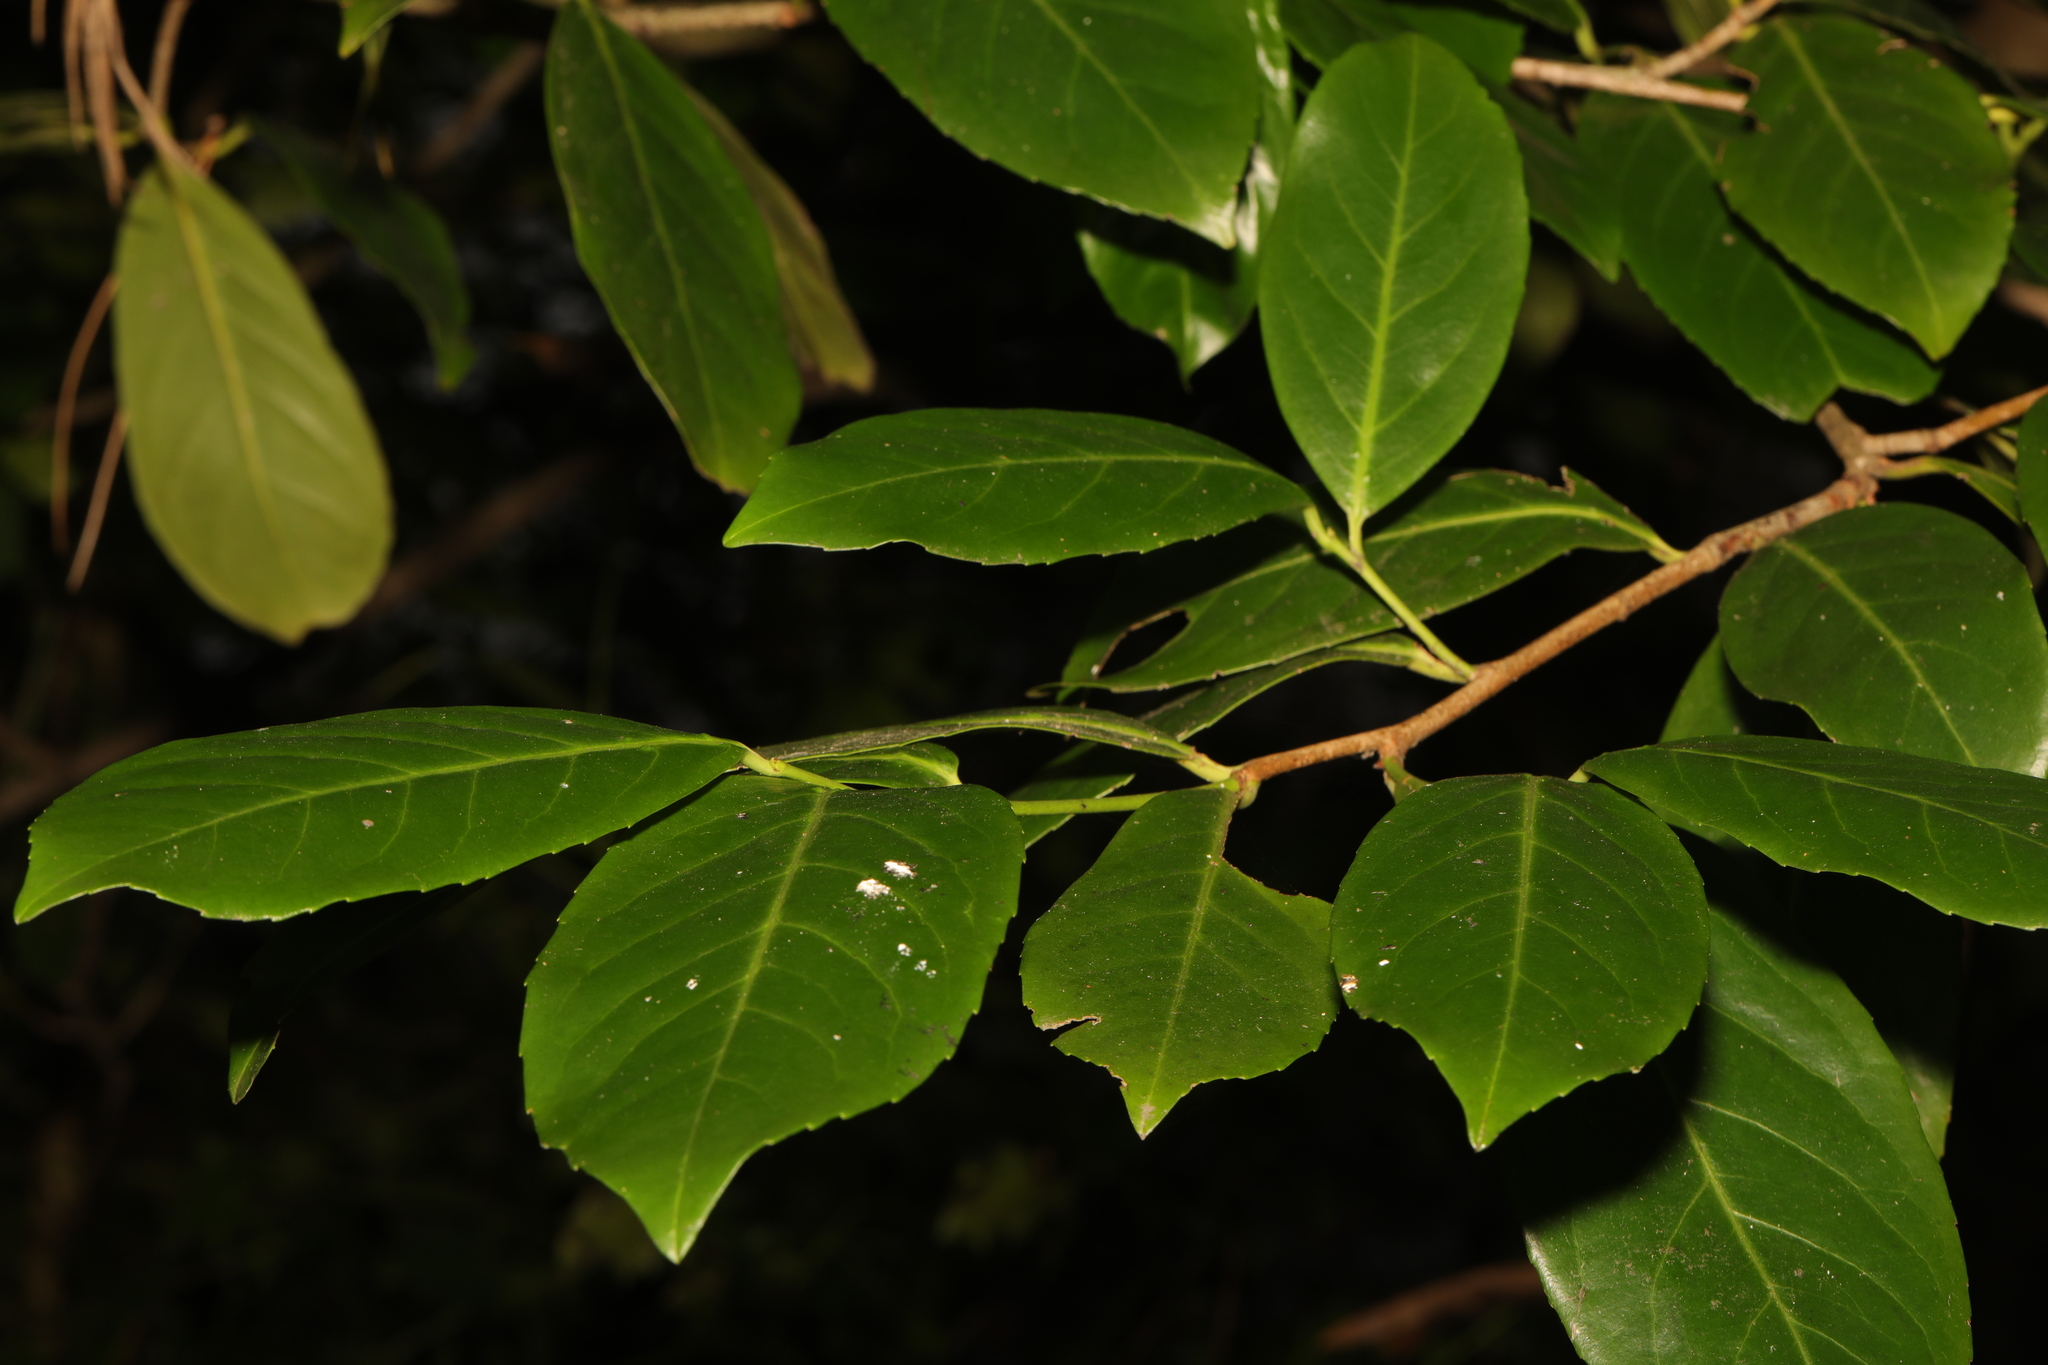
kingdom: Plantae
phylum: Tracheophyta
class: Magnoliopsida
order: Rosales
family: Rosaceae
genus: Prunus
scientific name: Prunus laurocerasus
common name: Cherry laurel
